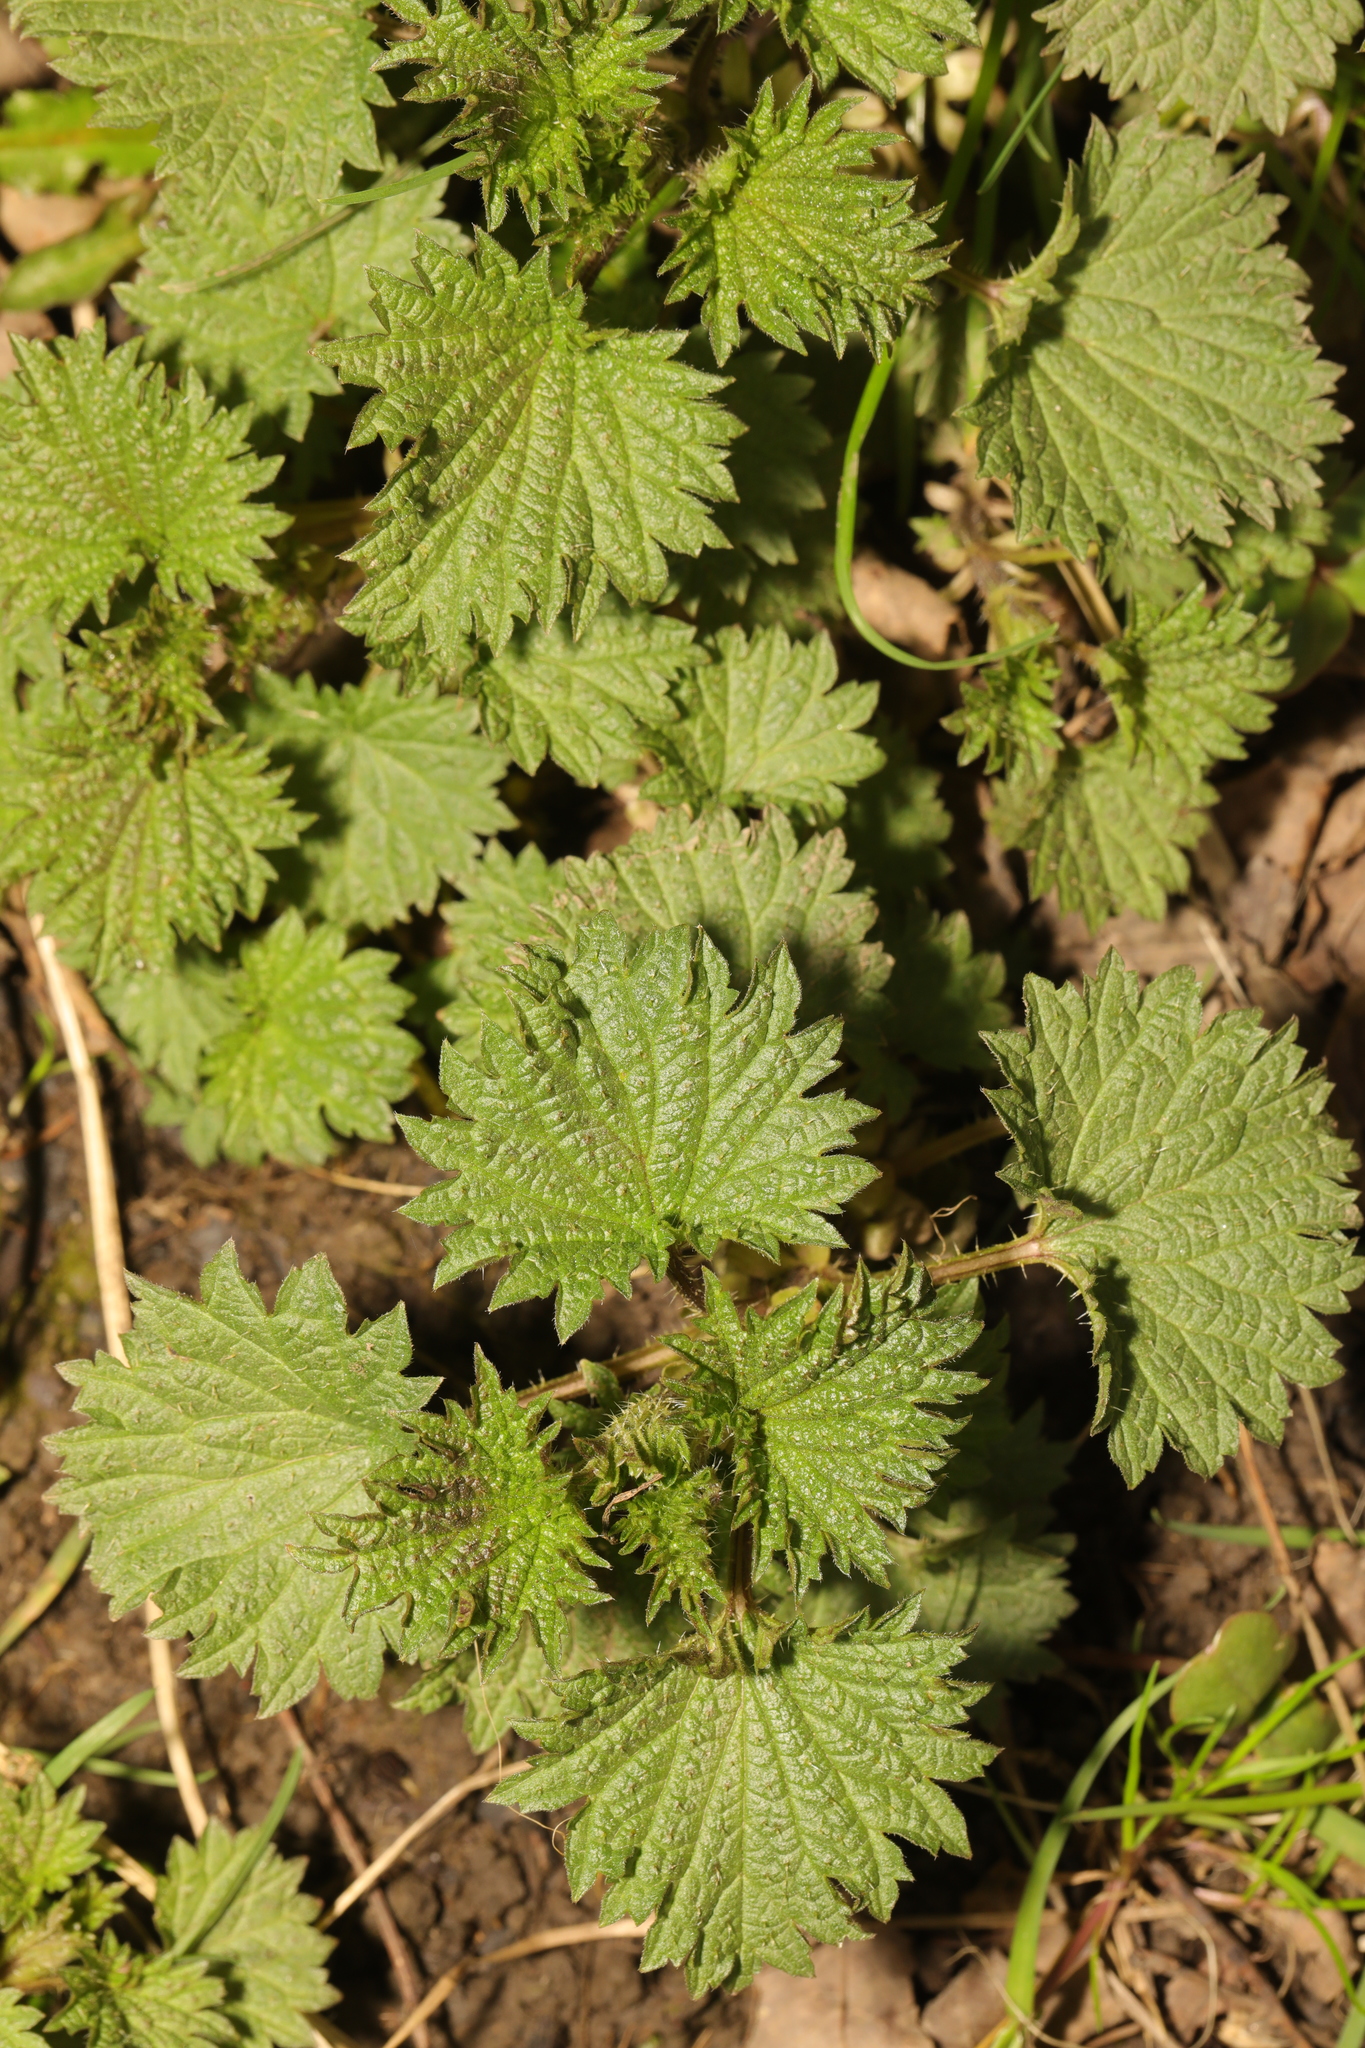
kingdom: Plantae
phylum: Tracheophyta
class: Magnoliopsida
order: Rosales
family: Urticaceae
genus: Urtica
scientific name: Urtica dioica
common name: Common nettle
